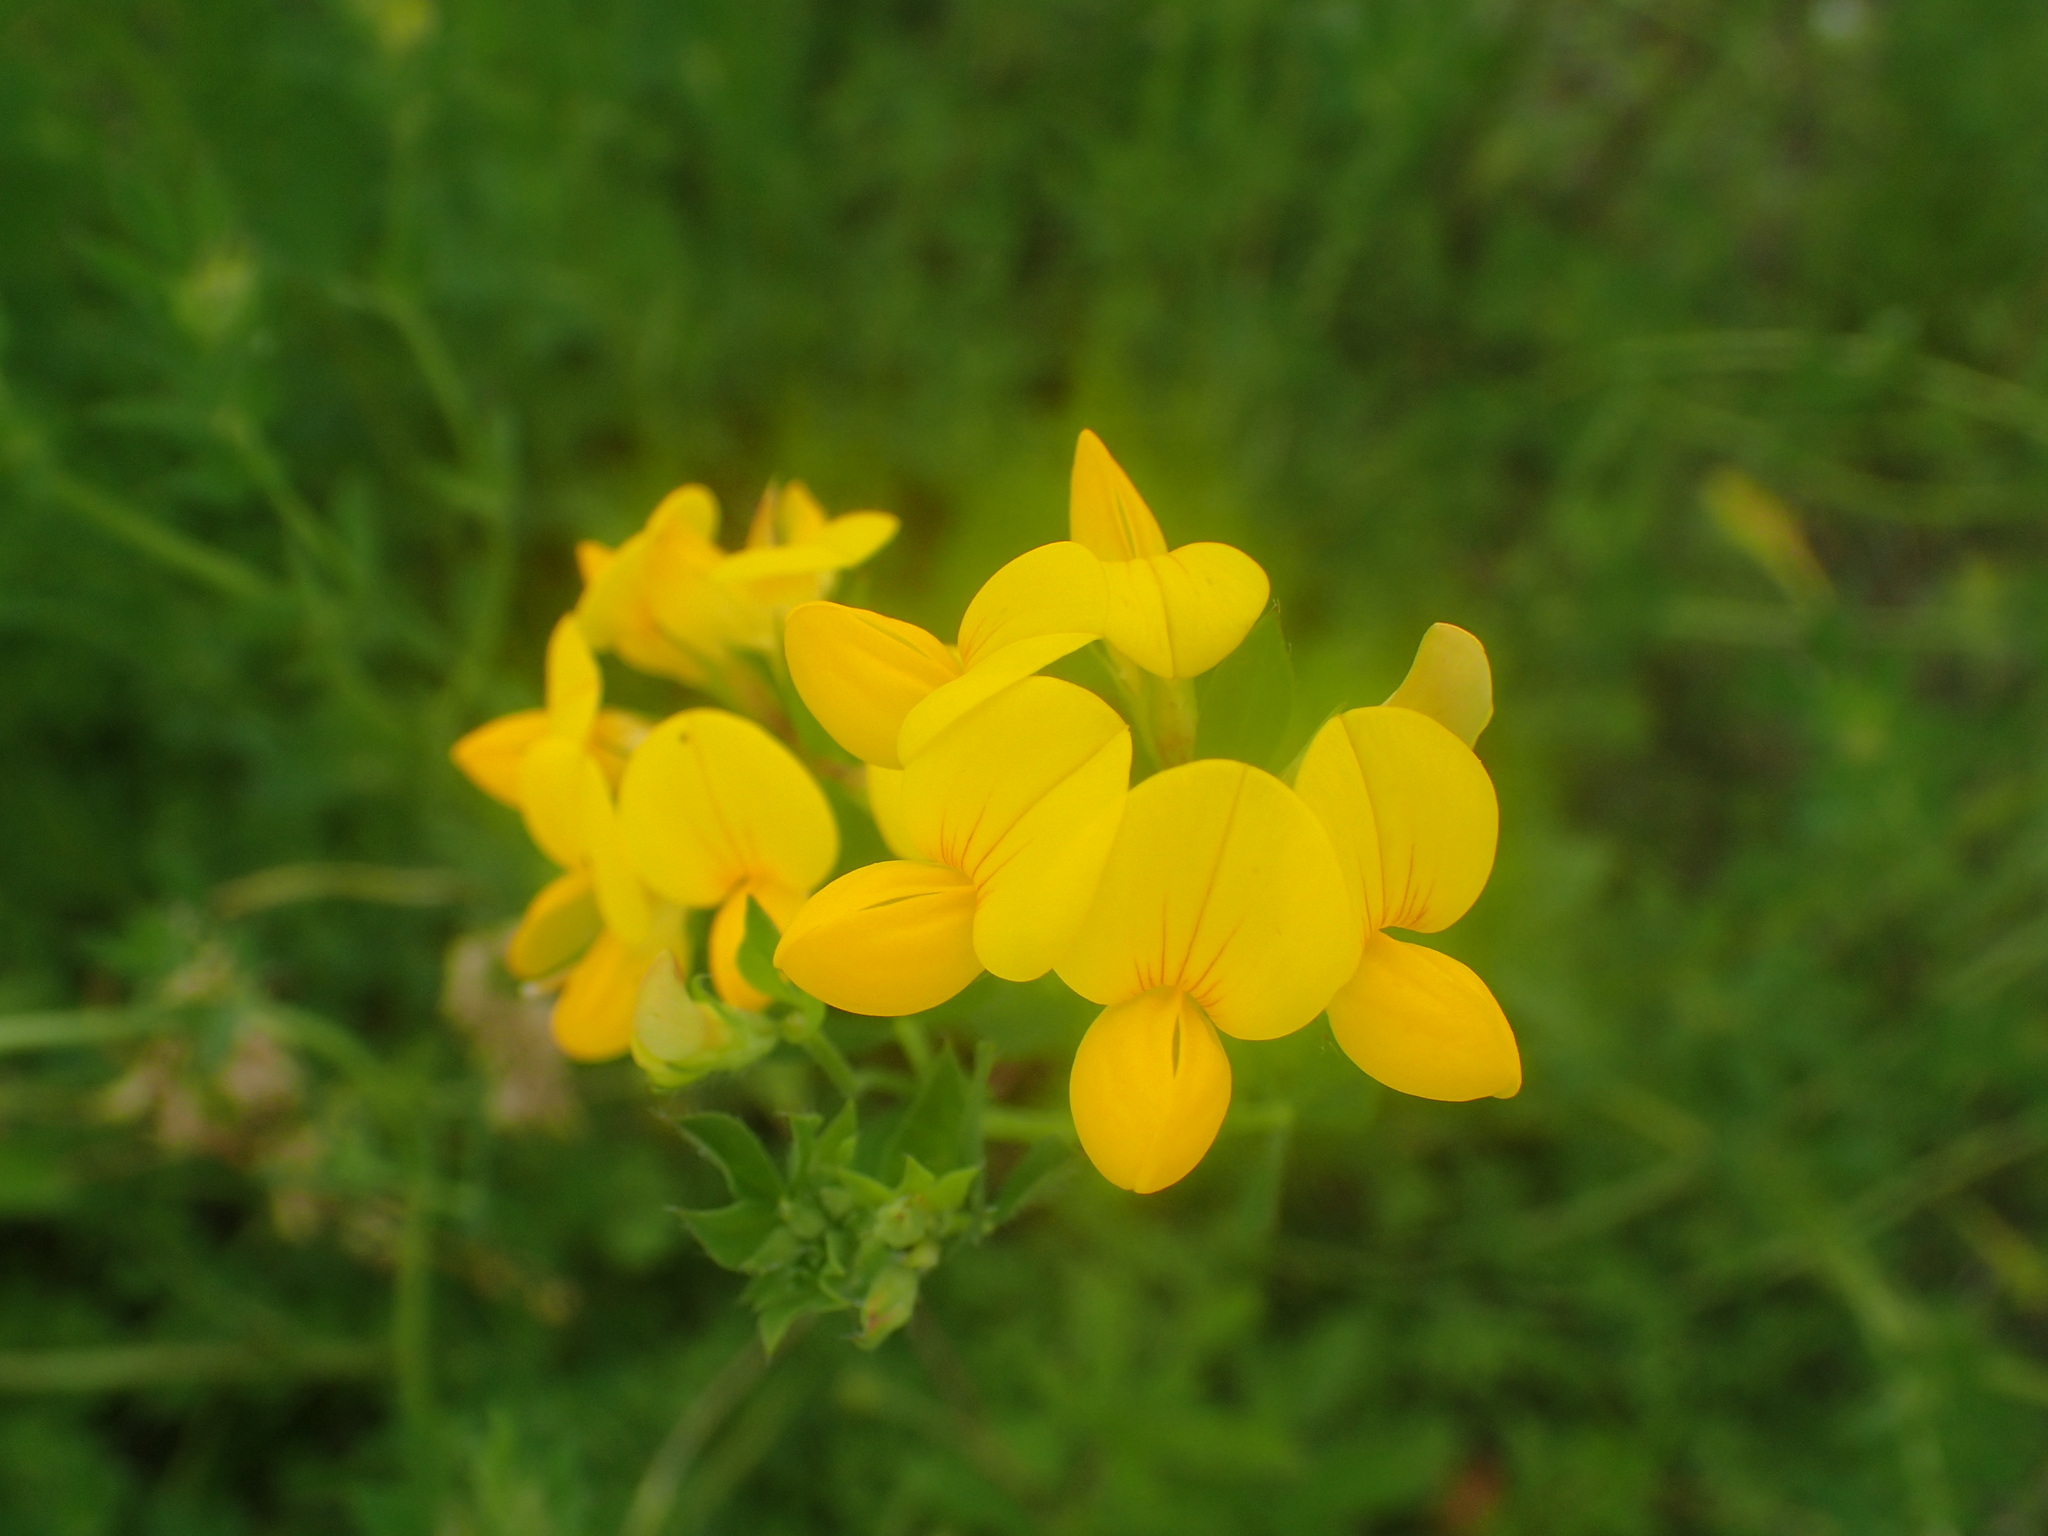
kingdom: Plantae
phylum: Tracheophyta
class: Magnoliopsida
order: Fabales
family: Fabaceae
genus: Lotus
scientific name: Lotus corniculatus
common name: Common bird's-foot-trefoil
